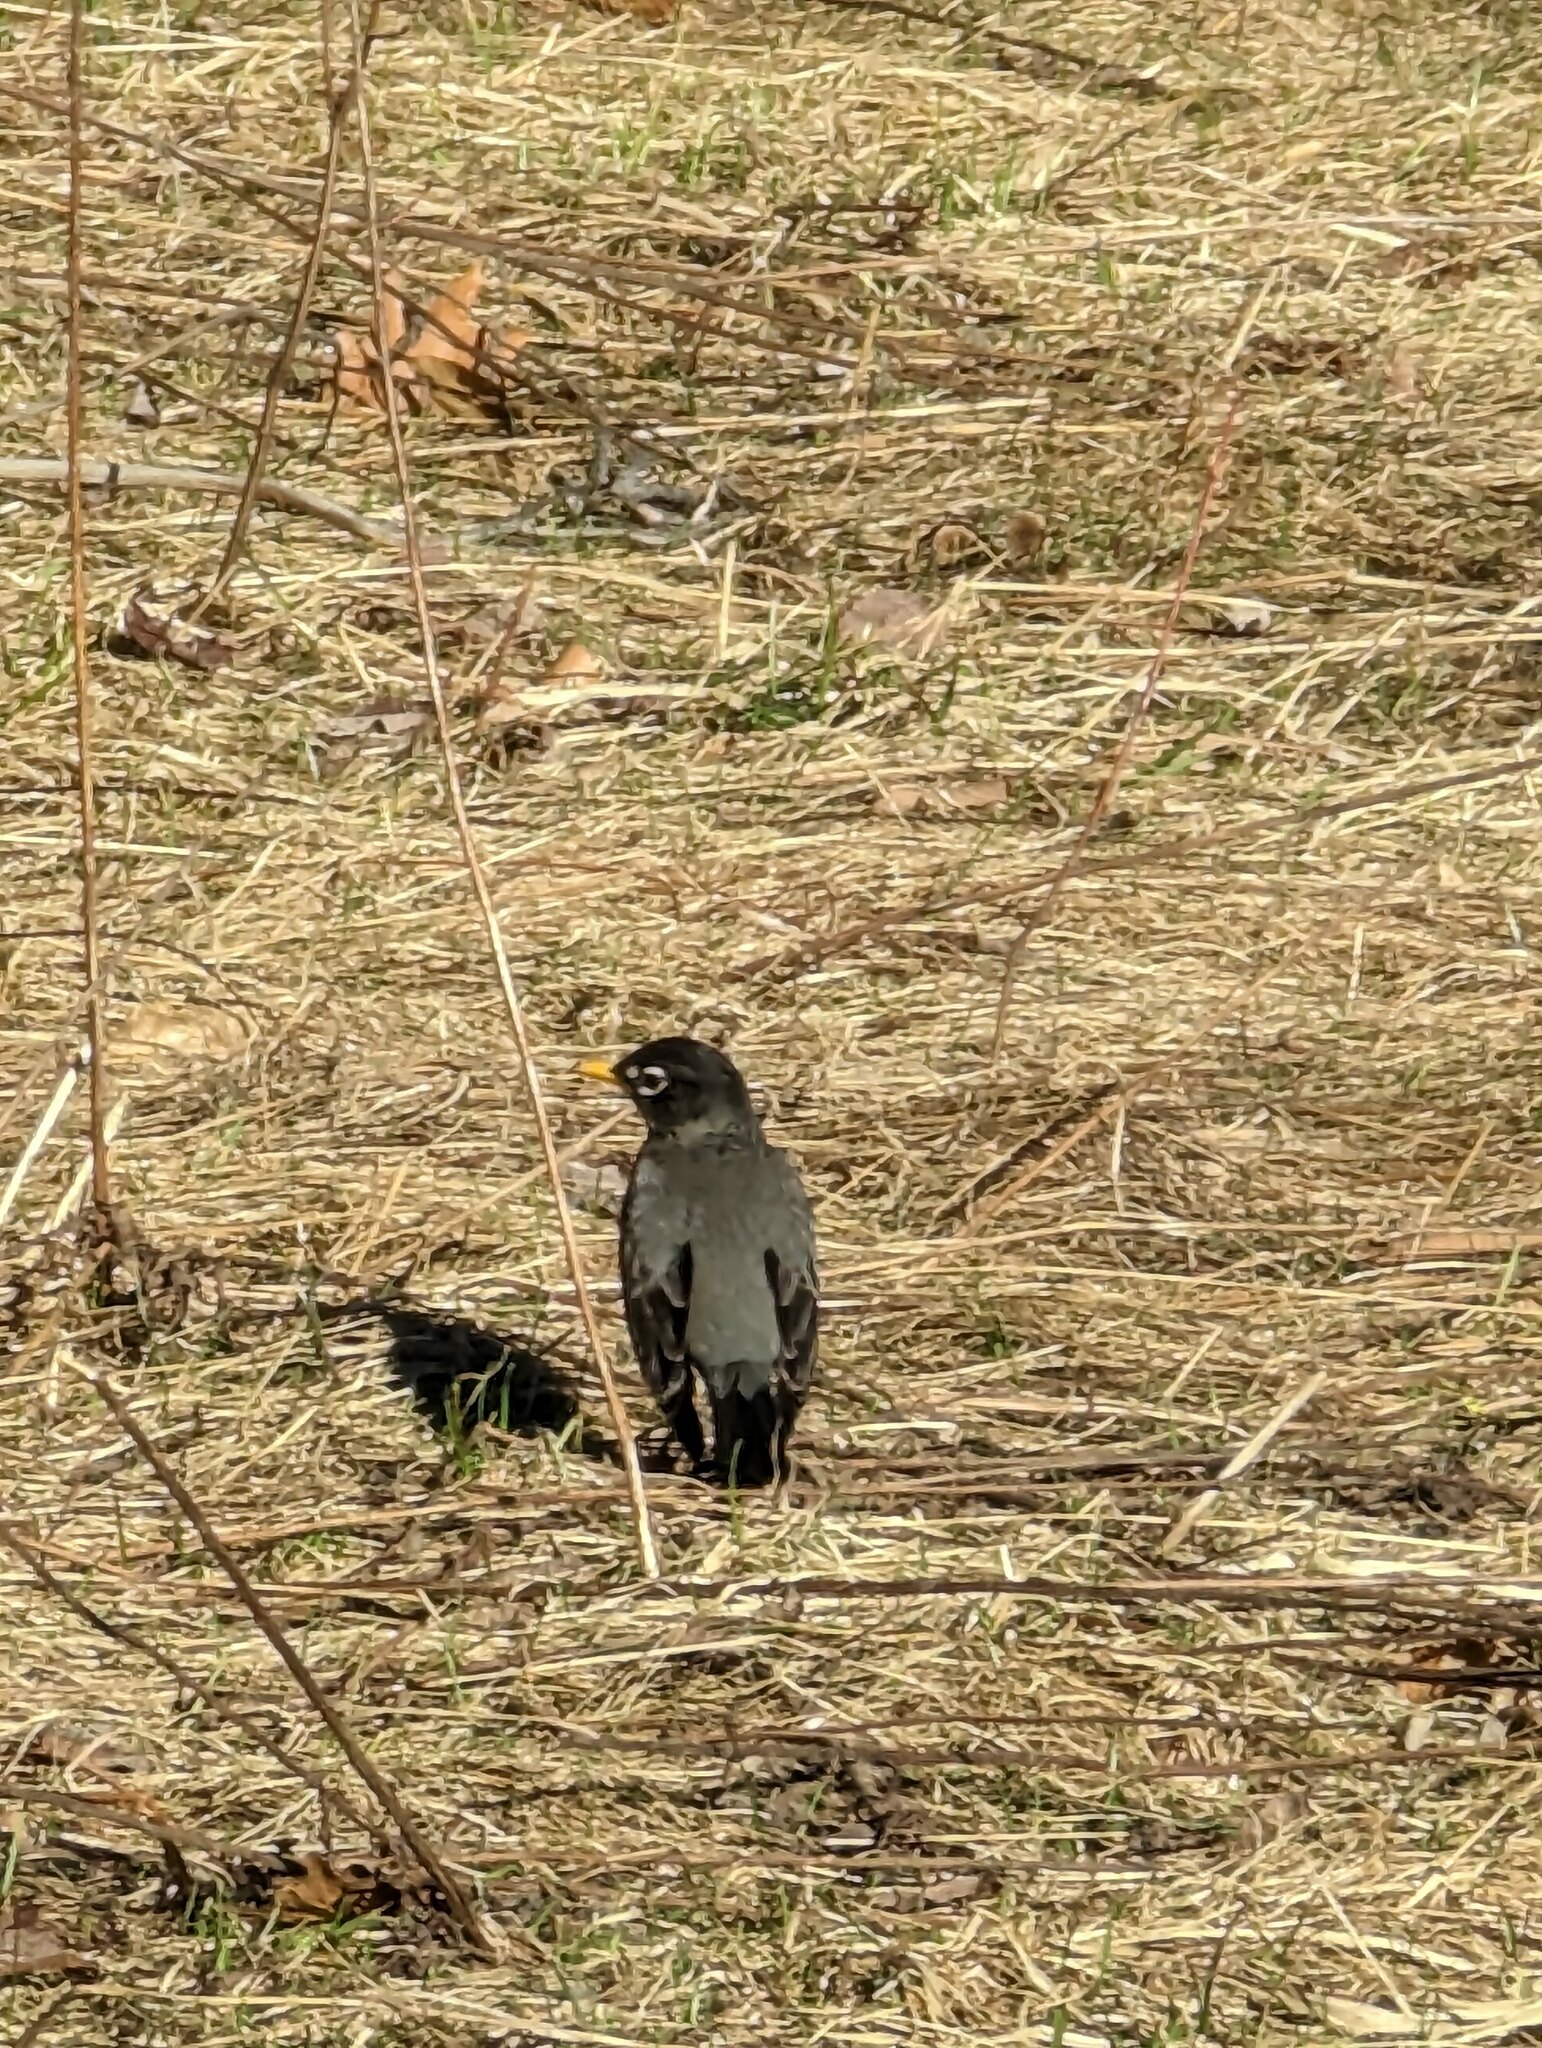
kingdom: Animalia
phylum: Chordata
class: Aves
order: Passeriformes
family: Turdidae
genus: Turdus
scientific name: Turdus migratorius
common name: American robin
